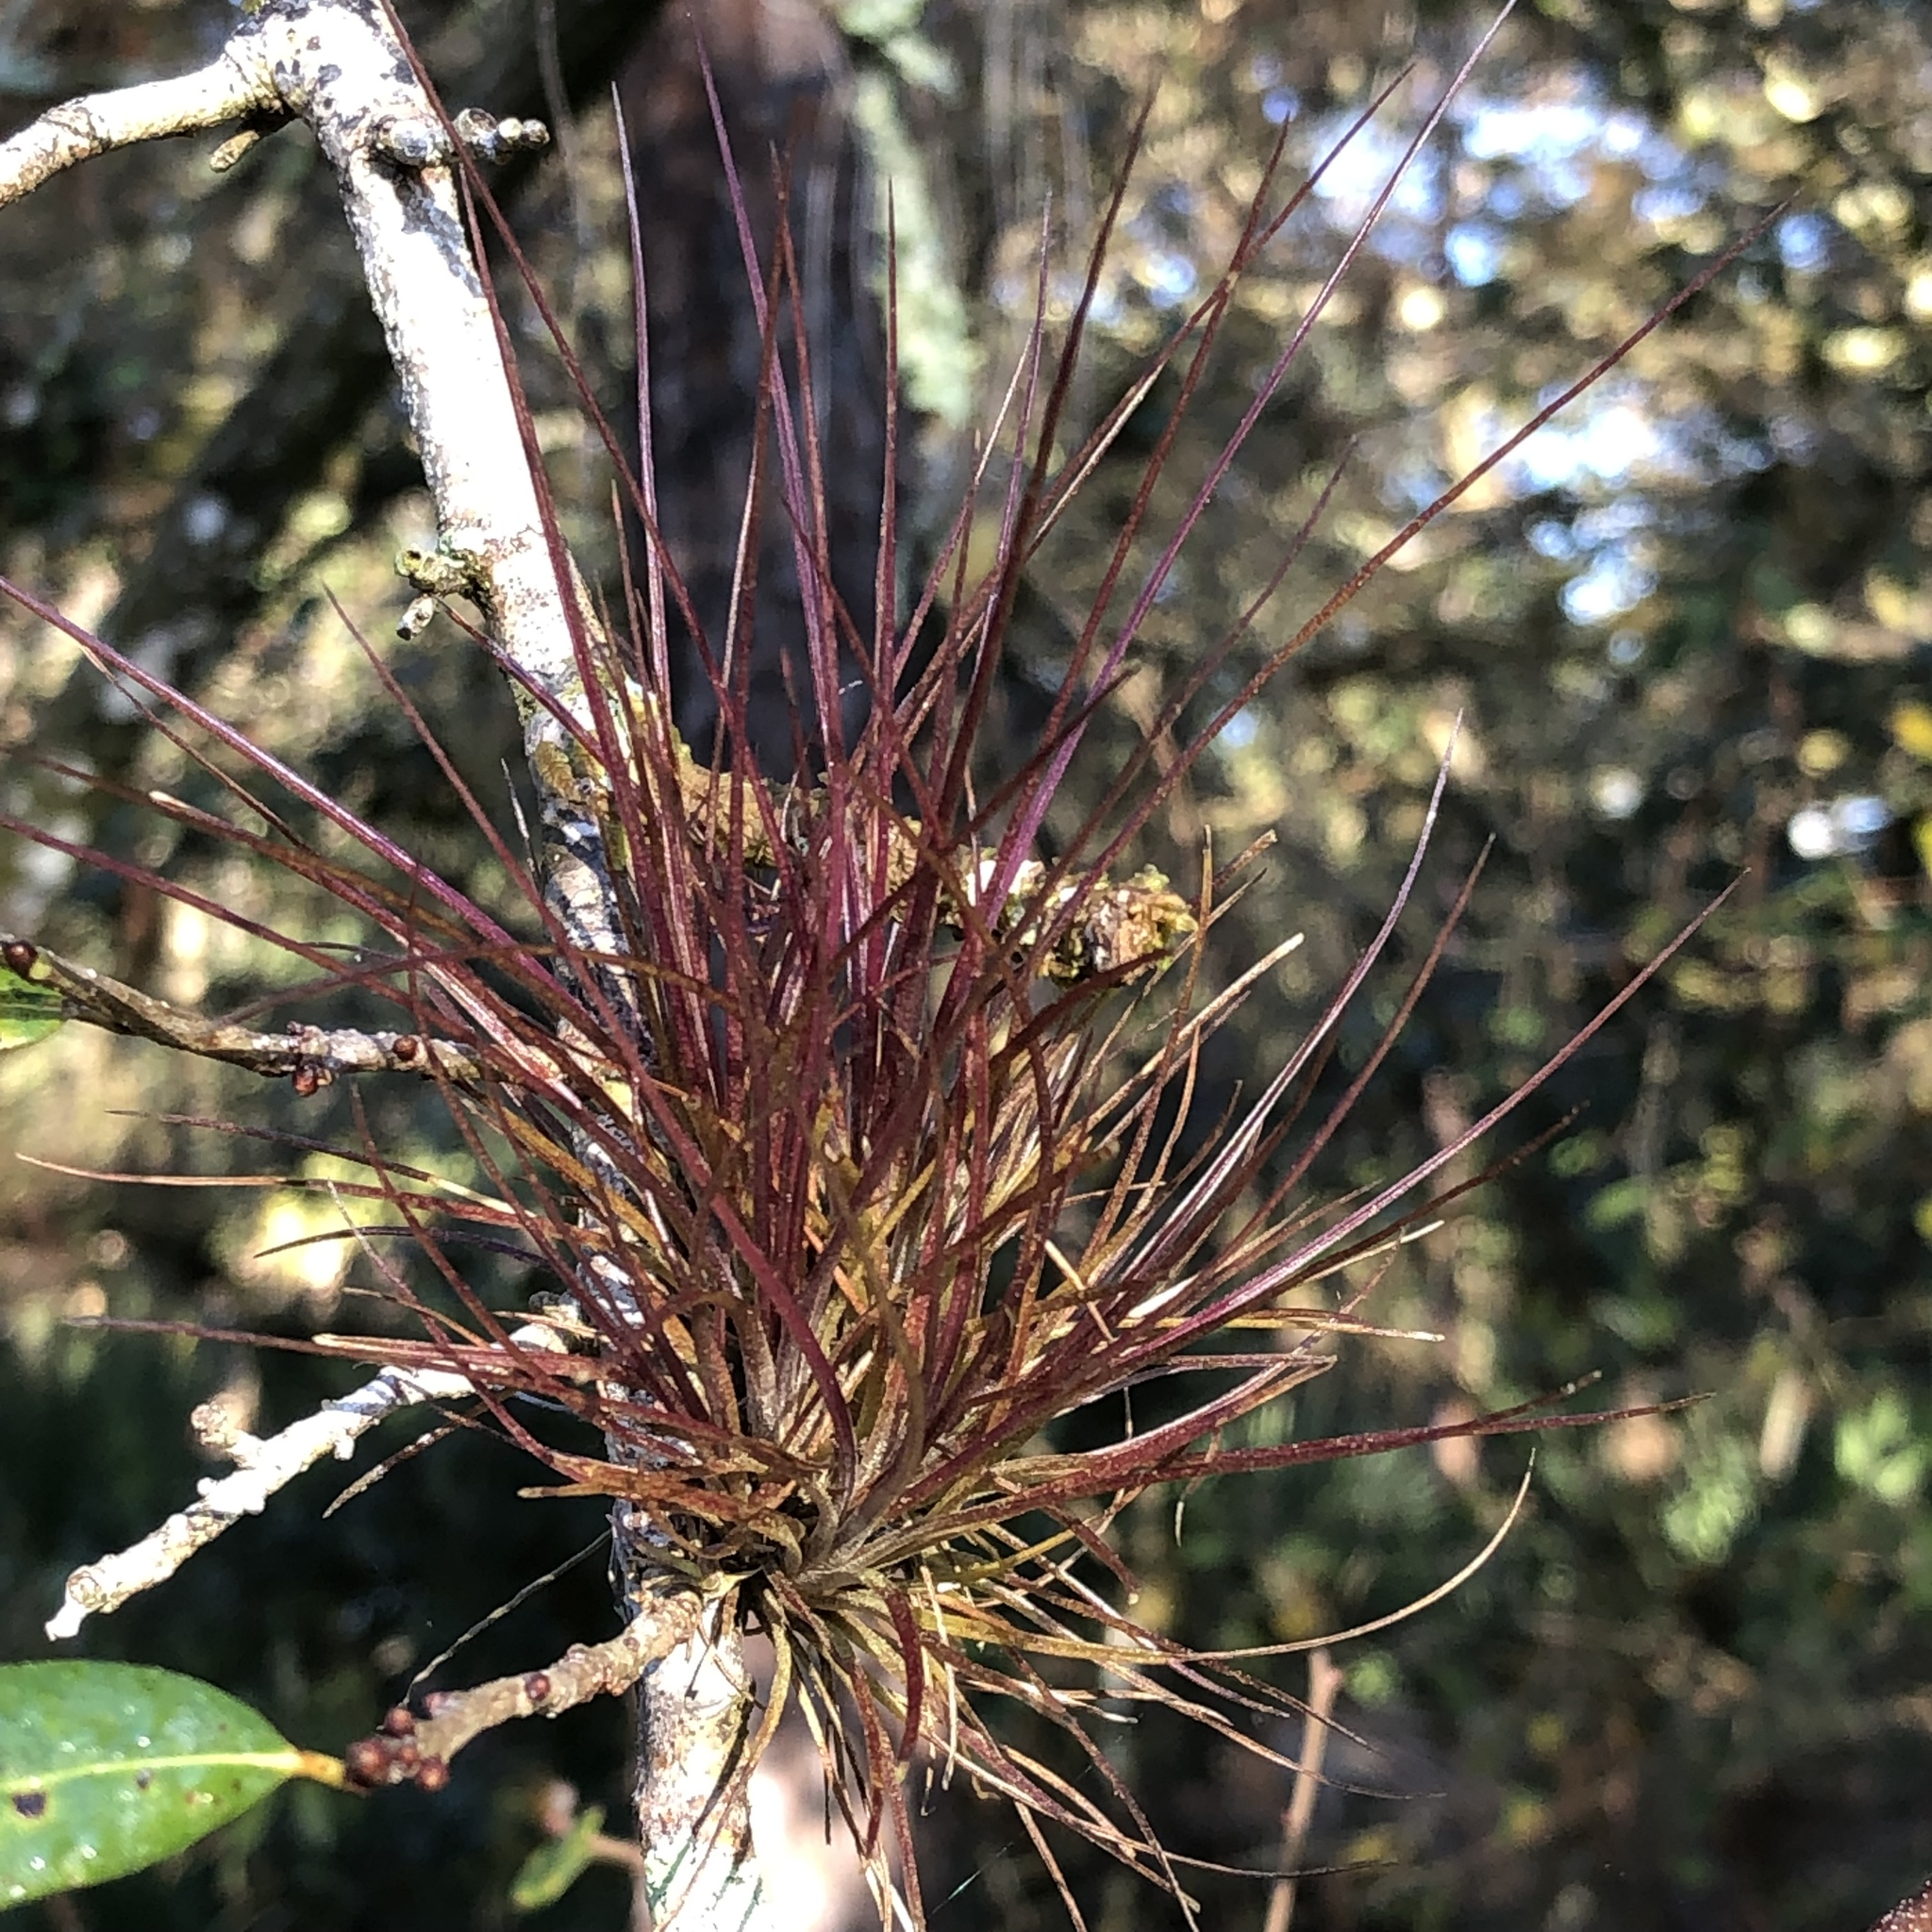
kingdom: Plantae
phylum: Tracheophyta
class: Liliopsida
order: Poales
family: Bromeliaceae
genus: Tillandsia
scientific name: Tillandsia setacea
